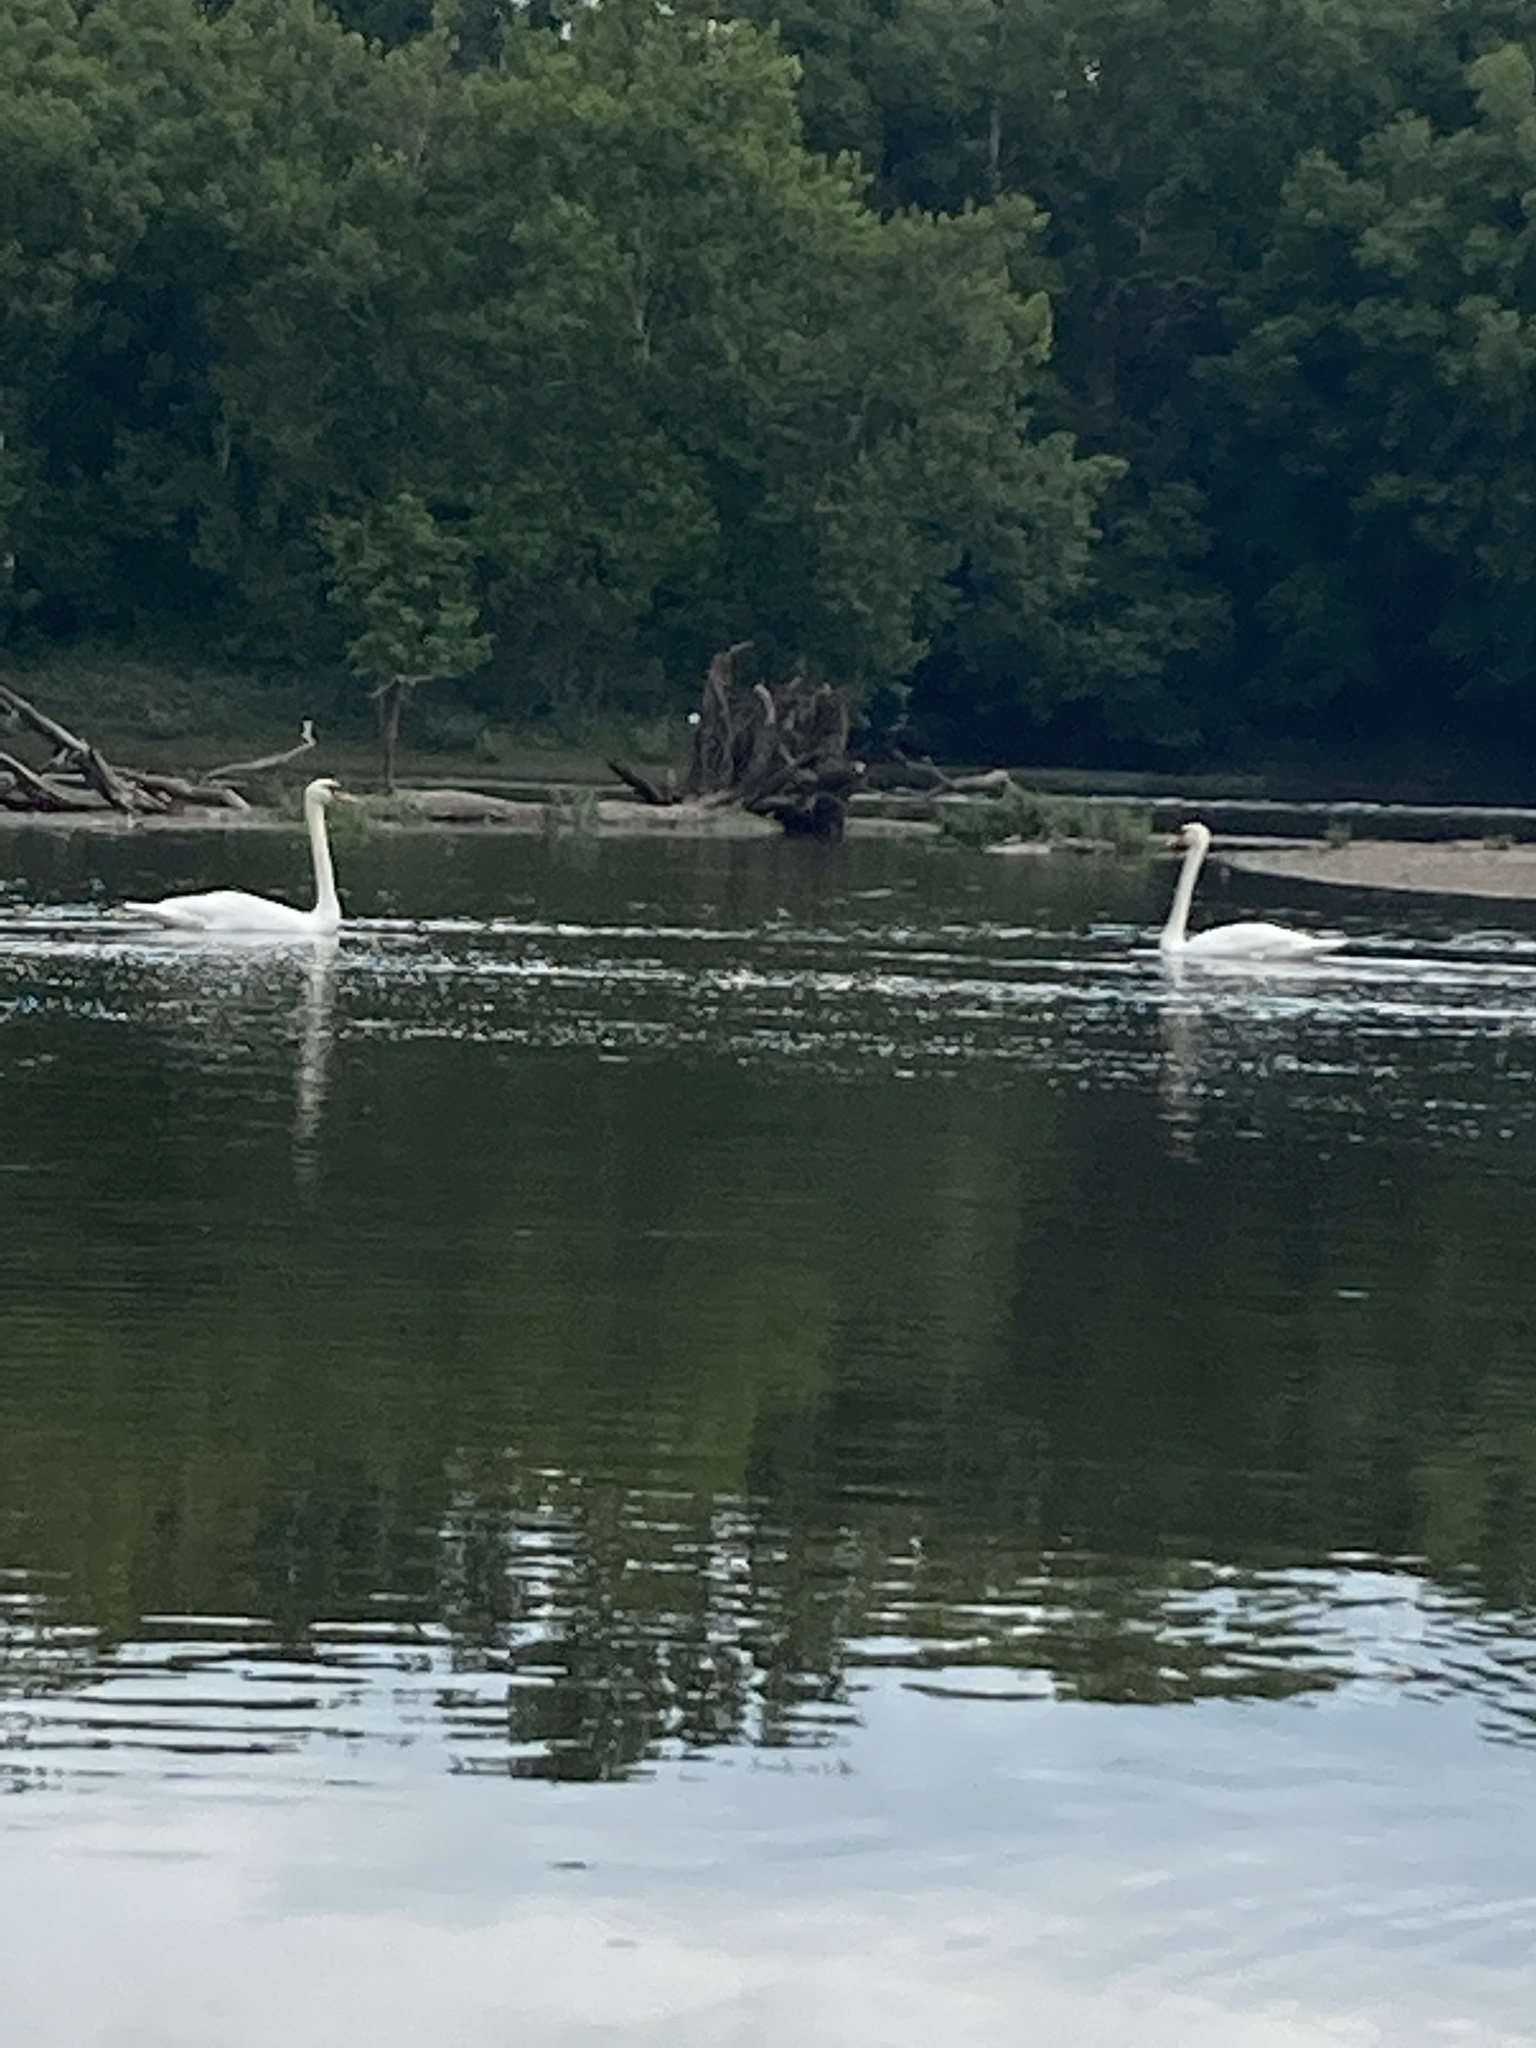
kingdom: Animalia
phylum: Chordata
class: Aves
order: Anseriformes
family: Anatidae
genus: Cygnus
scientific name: Cygnus olor
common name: Mute swan
